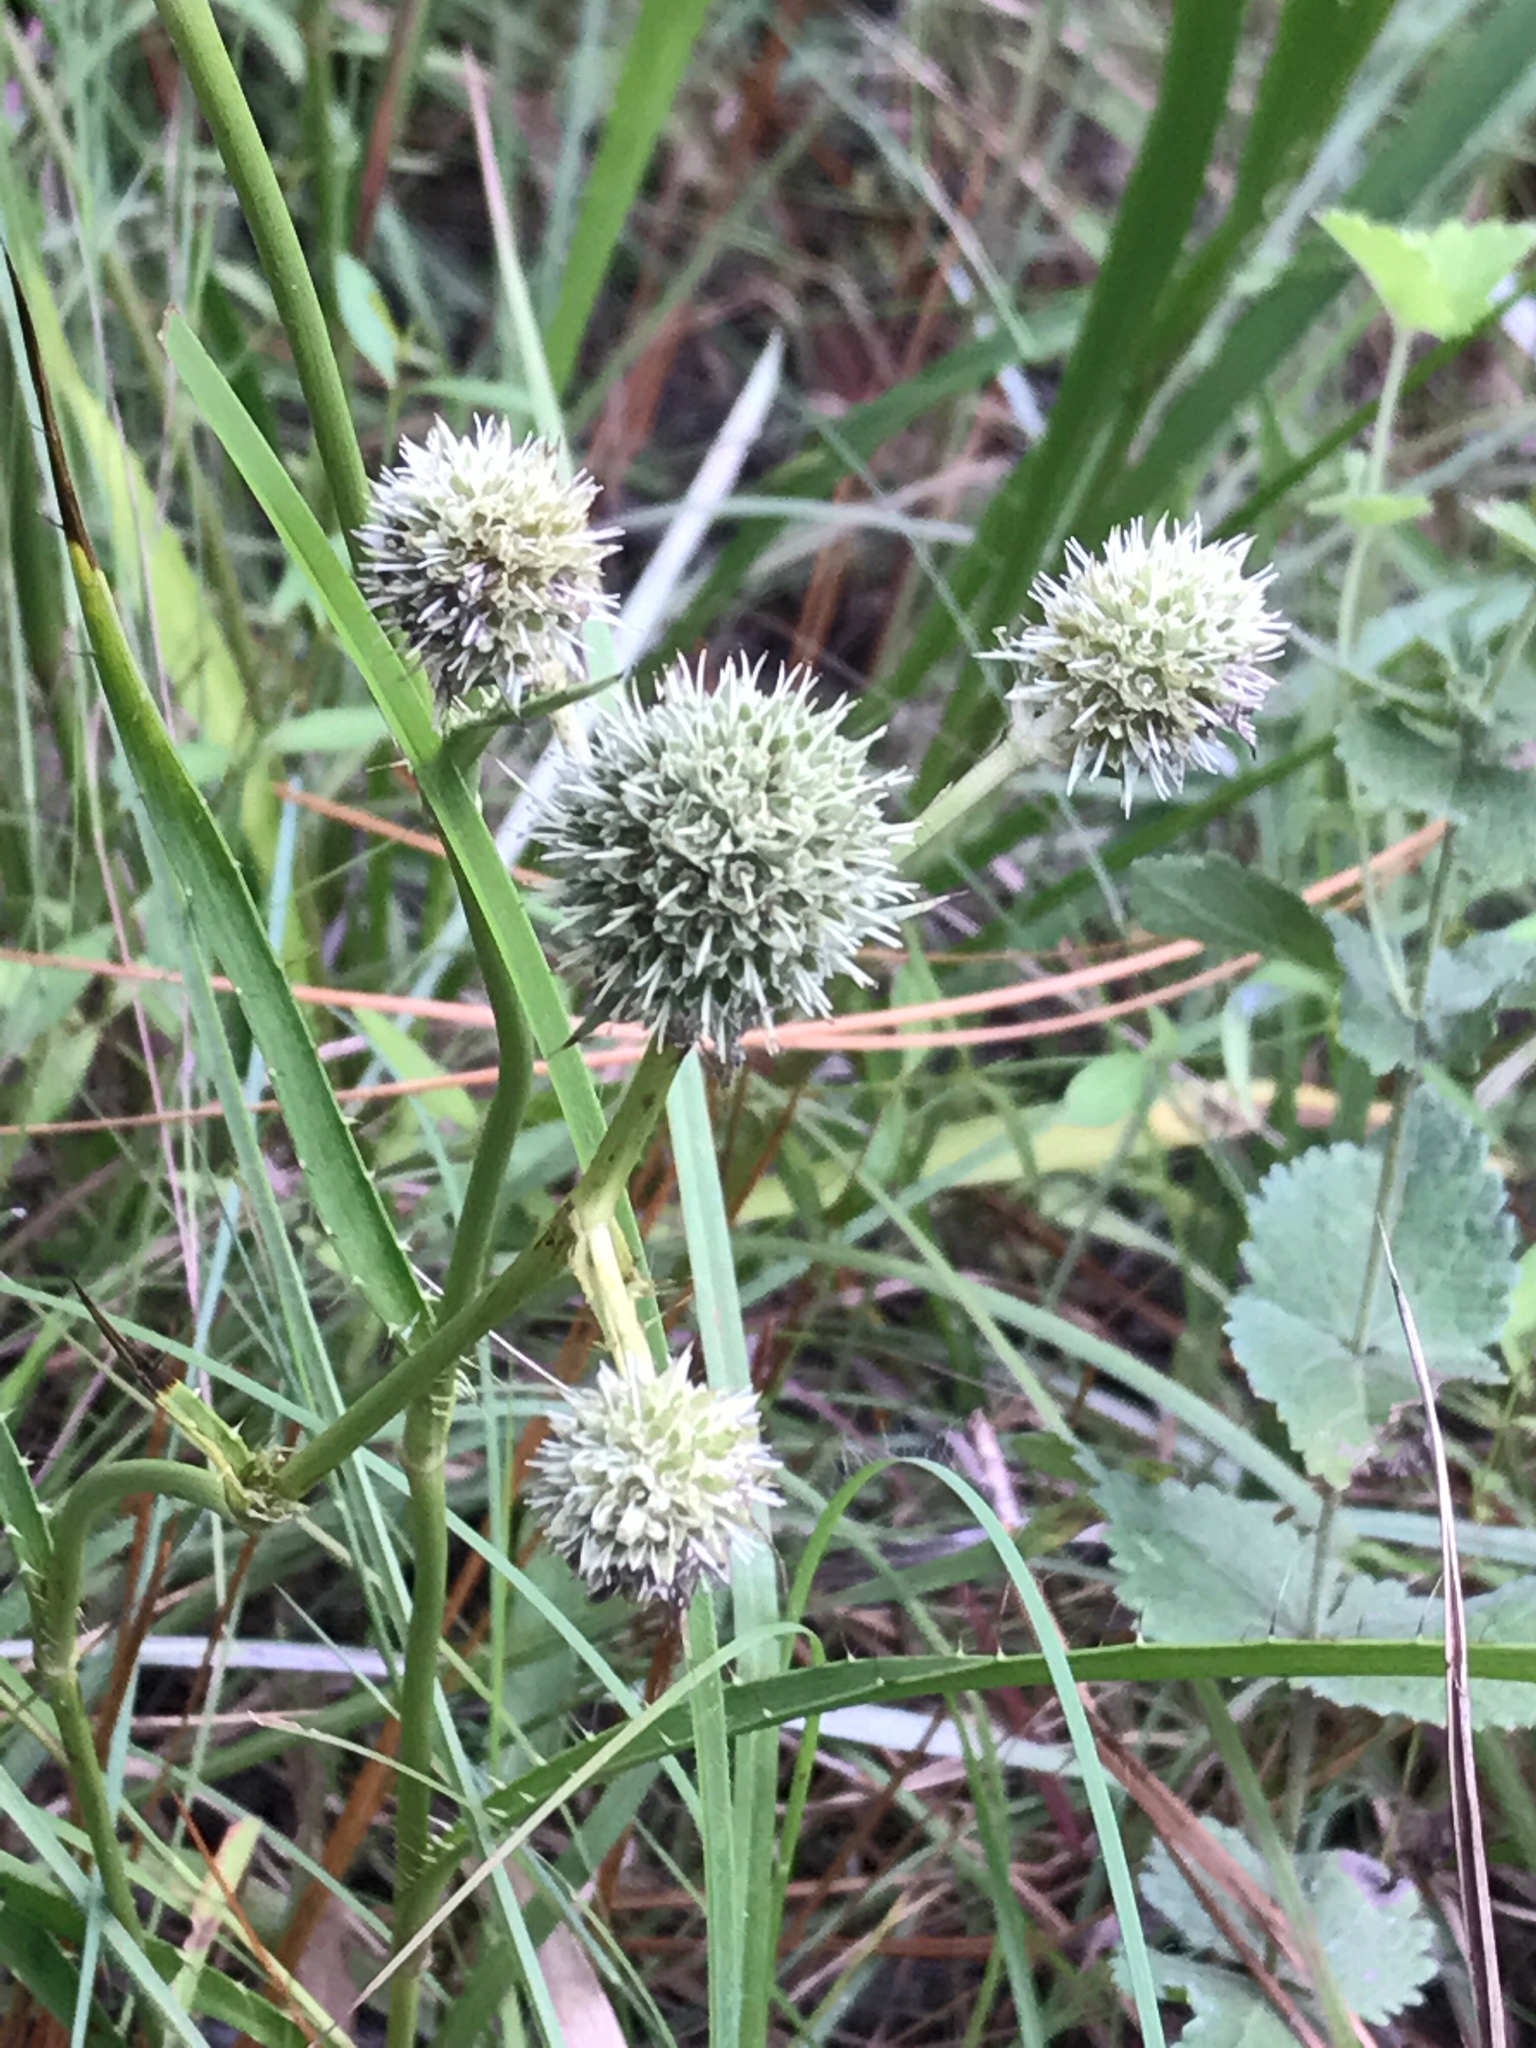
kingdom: Plantae
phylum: Tracheophyta
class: Magnoliopsida
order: Apiales
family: Apiaceae
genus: Eryngium
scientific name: Eryngium yuccifolium
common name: Button eryngo
